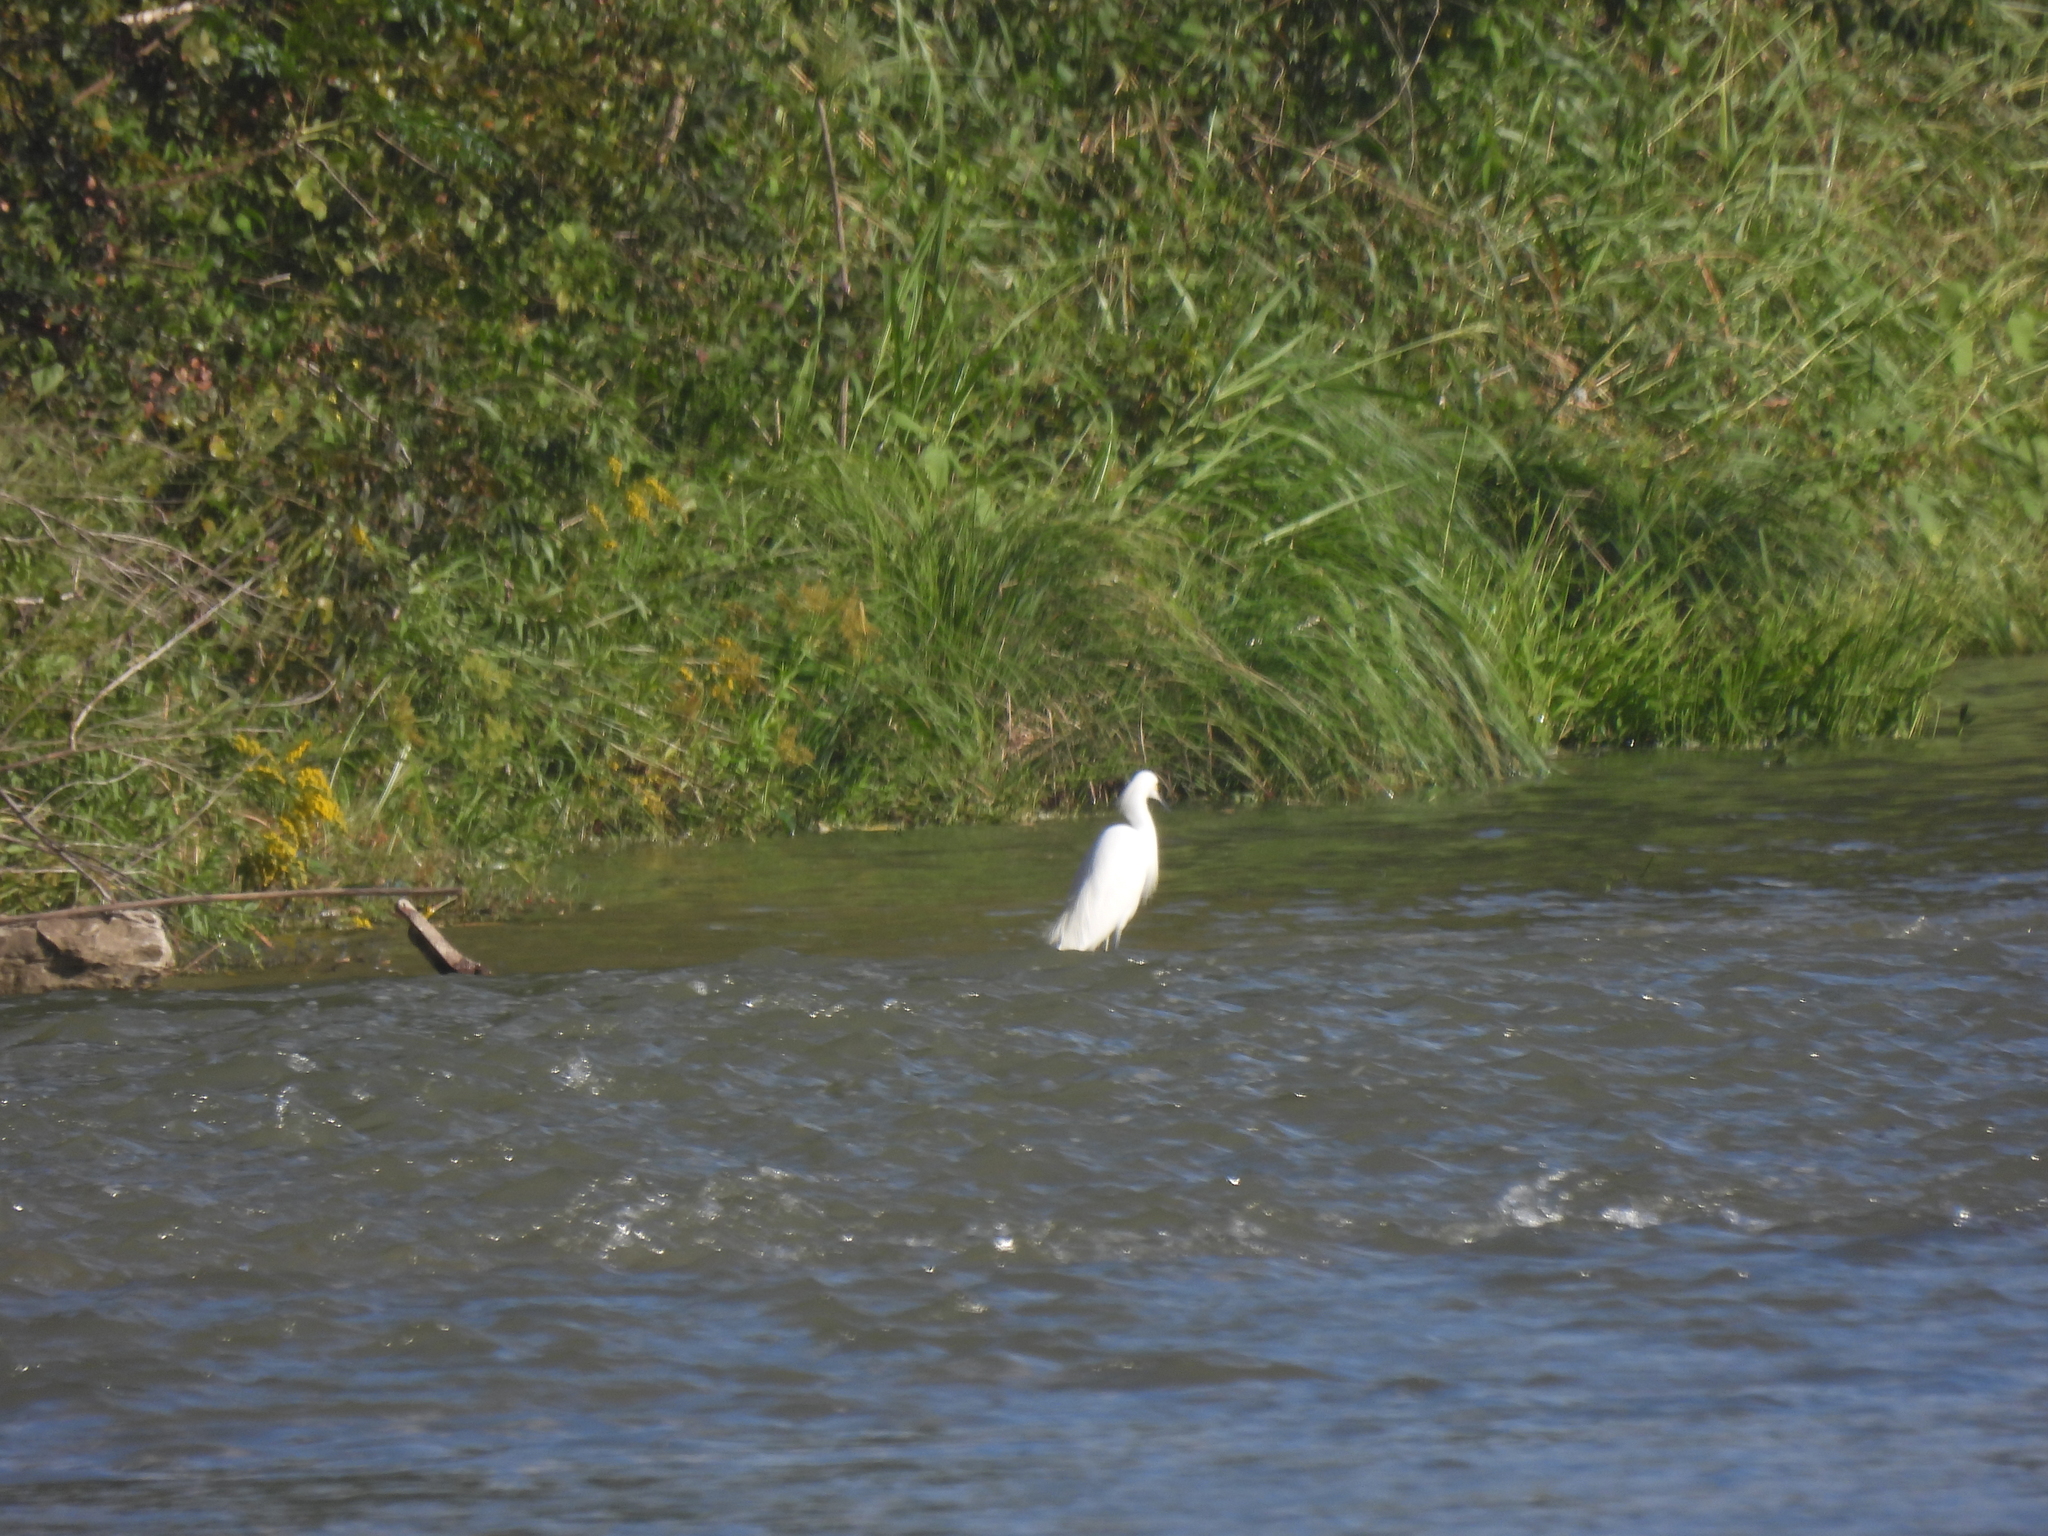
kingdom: Animalia
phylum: Chordata
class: Aves
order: Pelecaniformes
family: Ardeidae
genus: Egretta
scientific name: Egretta thula
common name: Snowy egret
